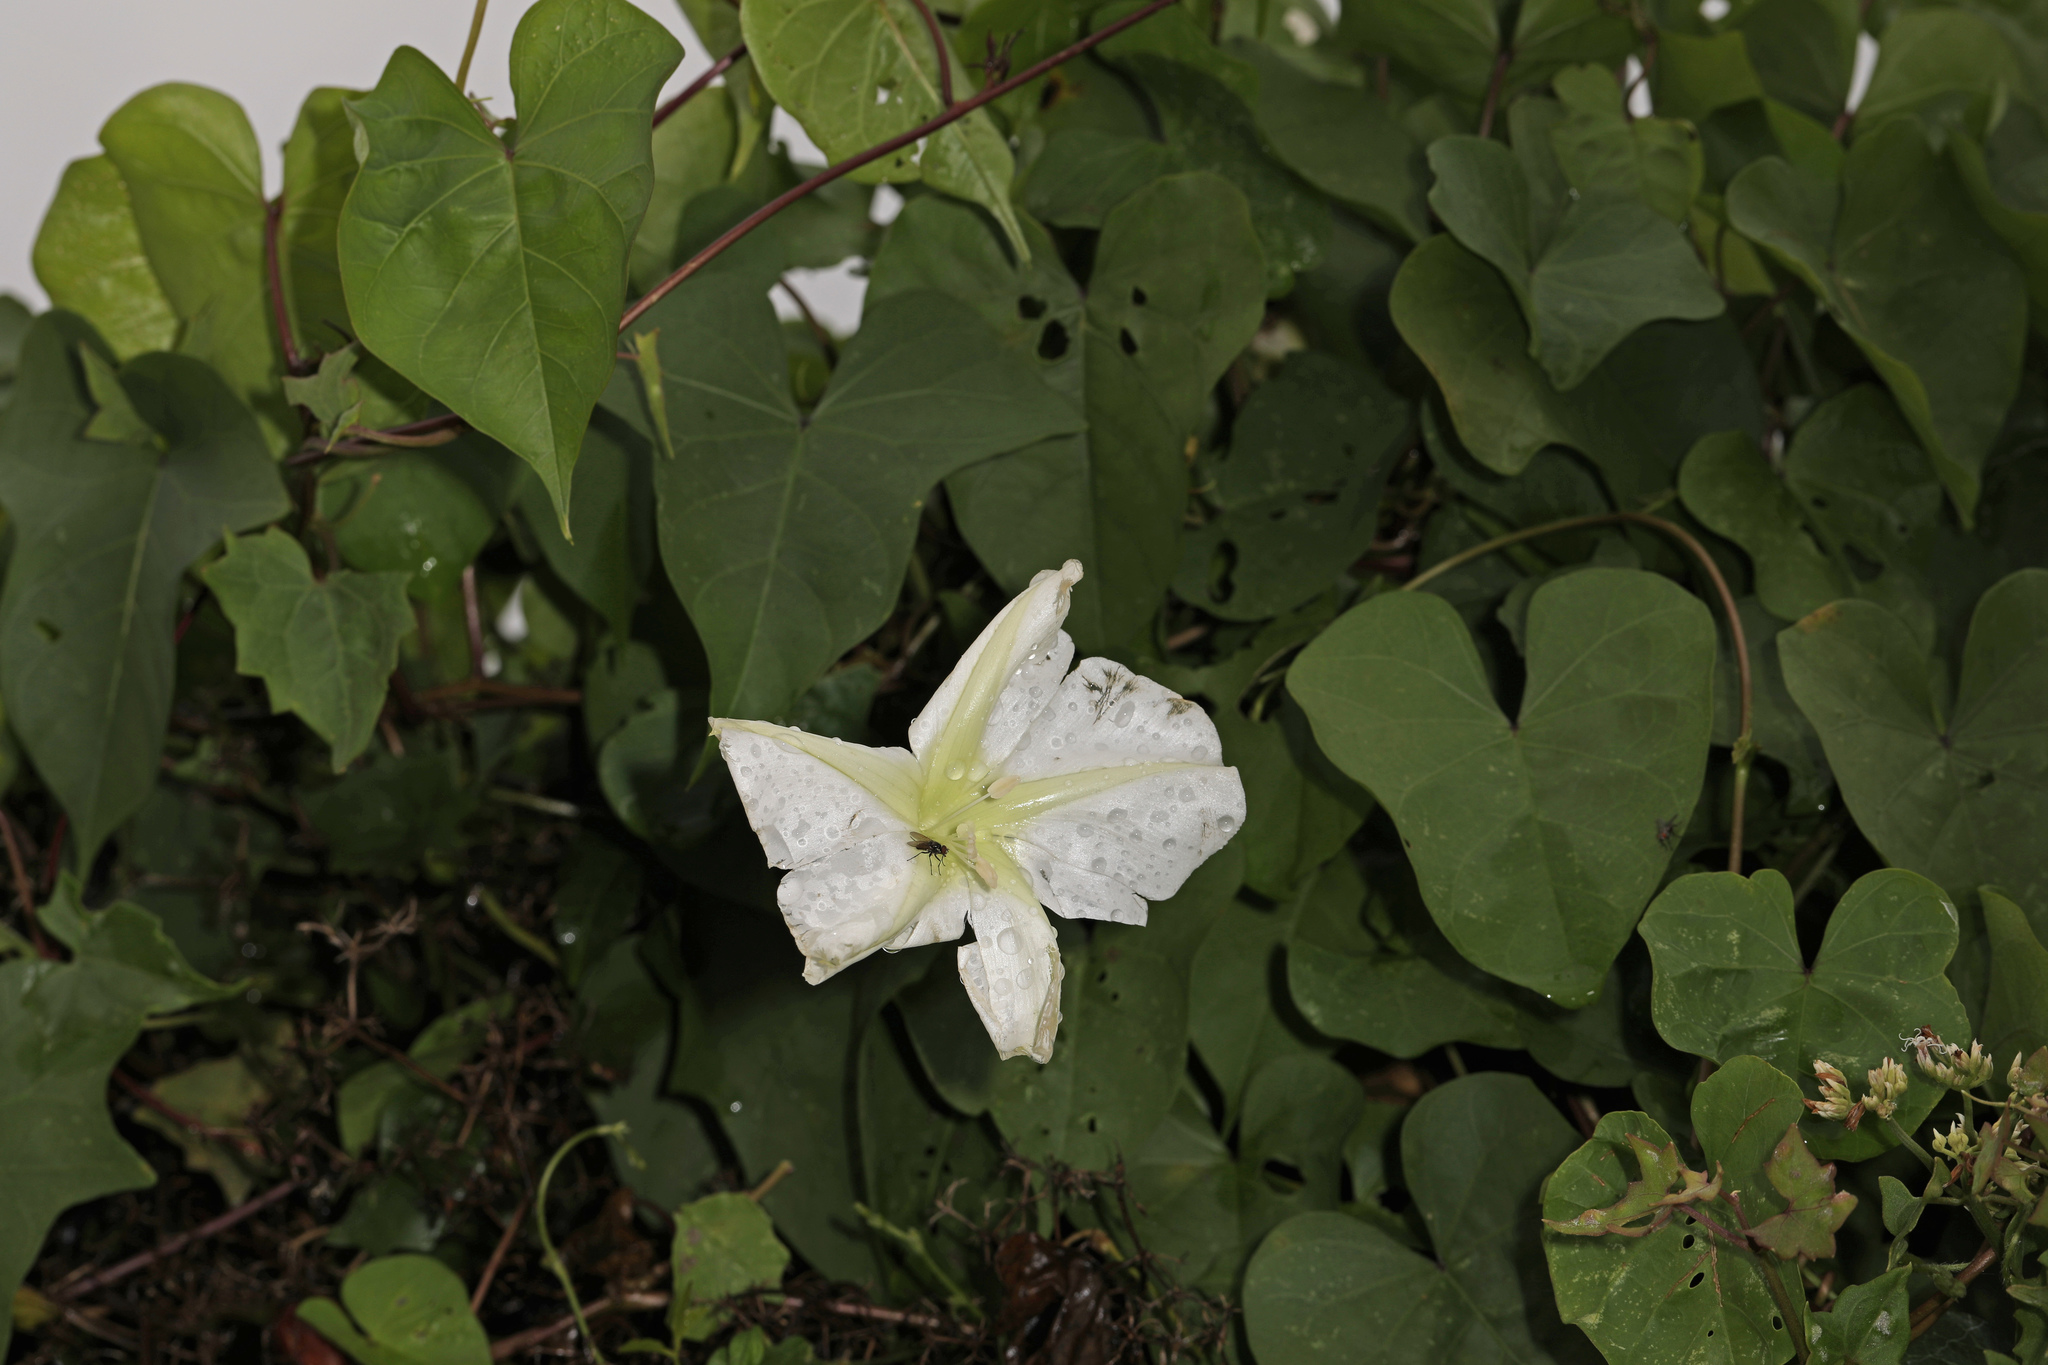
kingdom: Plantae
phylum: Tracheophyta
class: Magnoliopsida
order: Solanales
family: Convolvulaceae
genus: Ipomoea
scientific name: Ipomoea alba
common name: Moonflower
